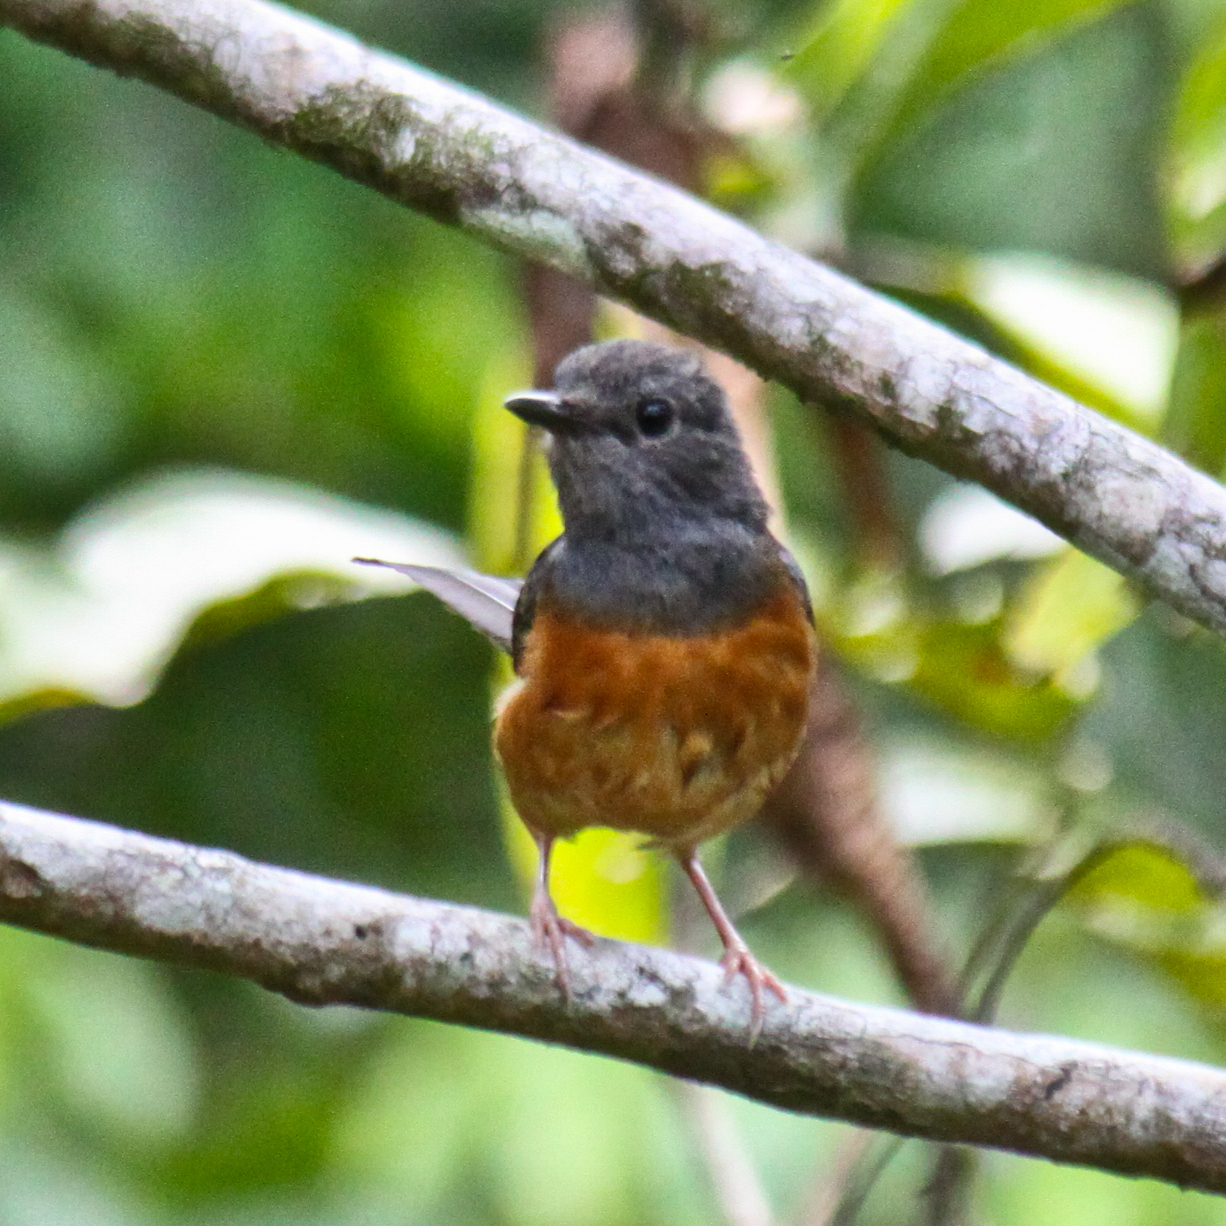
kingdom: Animalia
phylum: Chordata
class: Aves
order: Passeriformes
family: Muscicapidae
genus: Copsychus
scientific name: Copsychus malabaricus
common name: White-rumped shama
